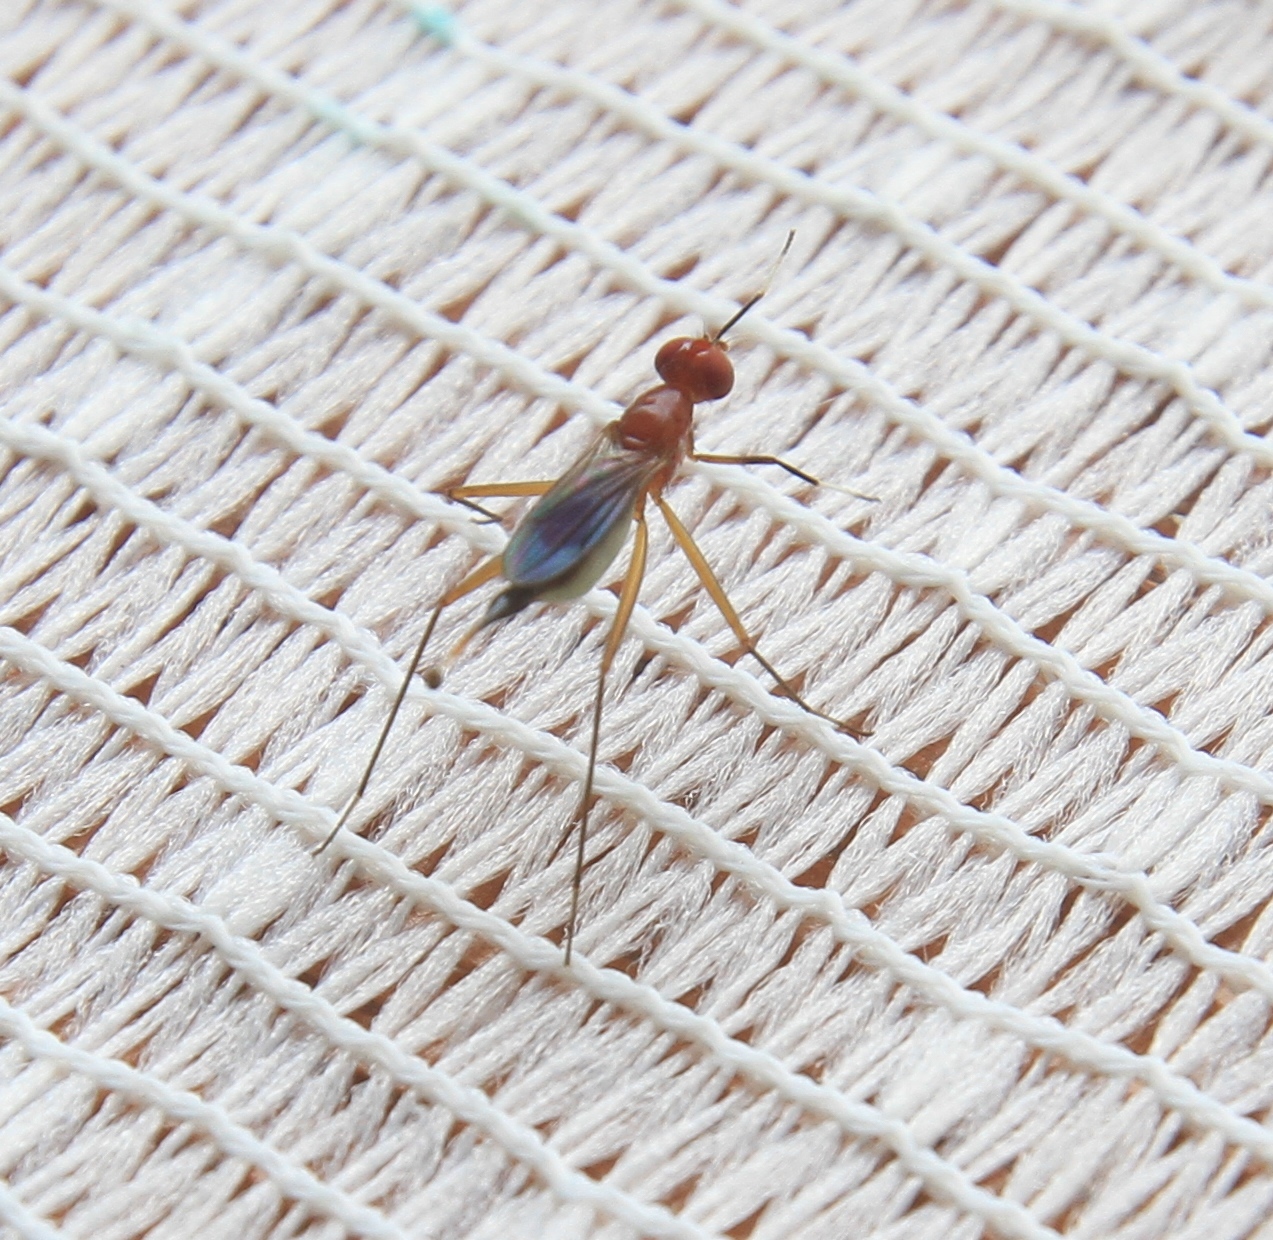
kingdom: Animalia
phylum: Arthropoda
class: Insecta
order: Diptera
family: Micropezidae
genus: Grallipeza
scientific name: Grallipeza nebulosa
